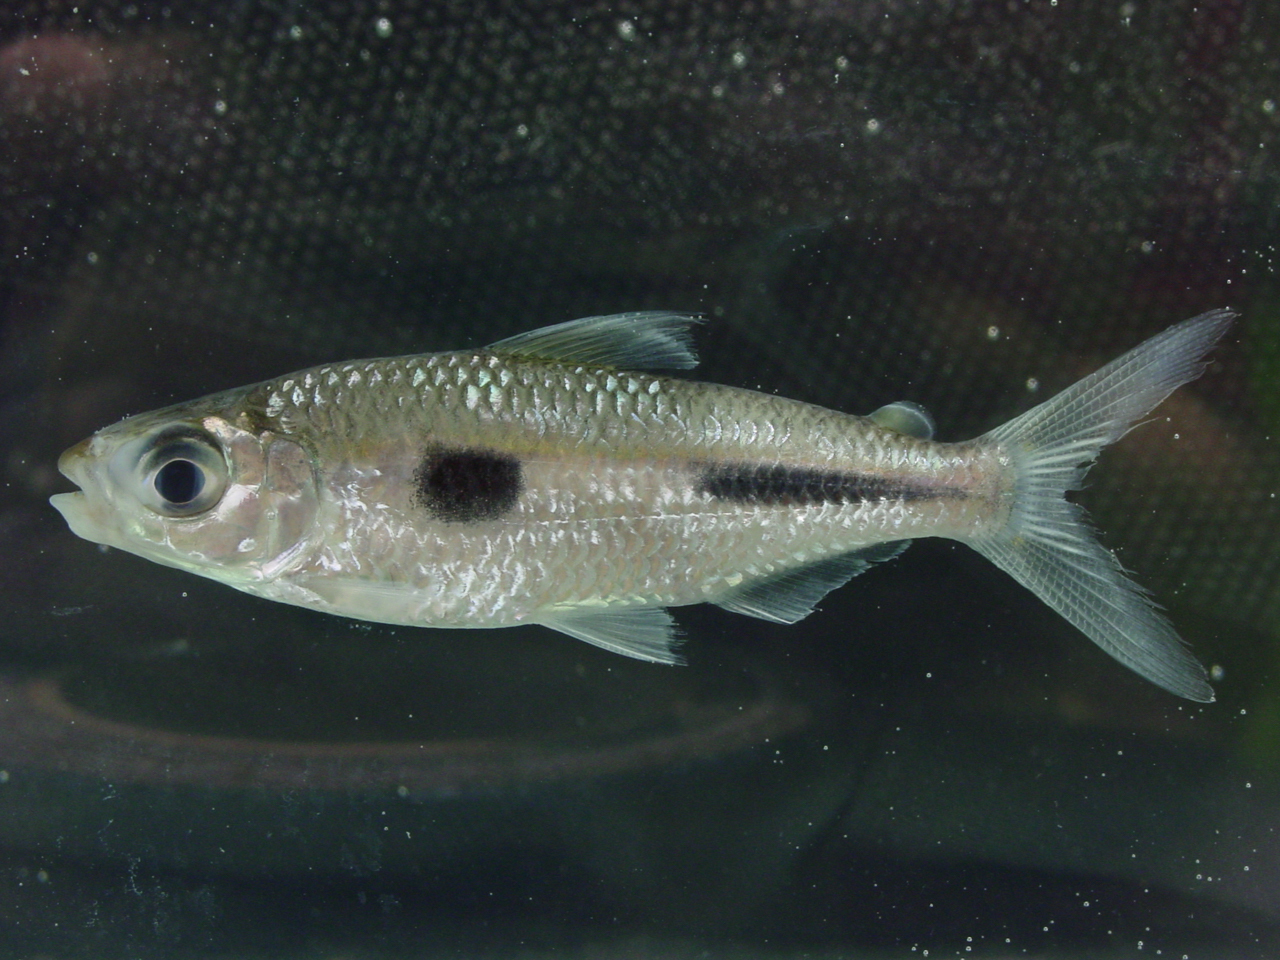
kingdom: Animalia
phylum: Chordata
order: Characiformes
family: Alestidae
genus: Bryconaethiops
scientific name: Bryconaethiops boulengeri
